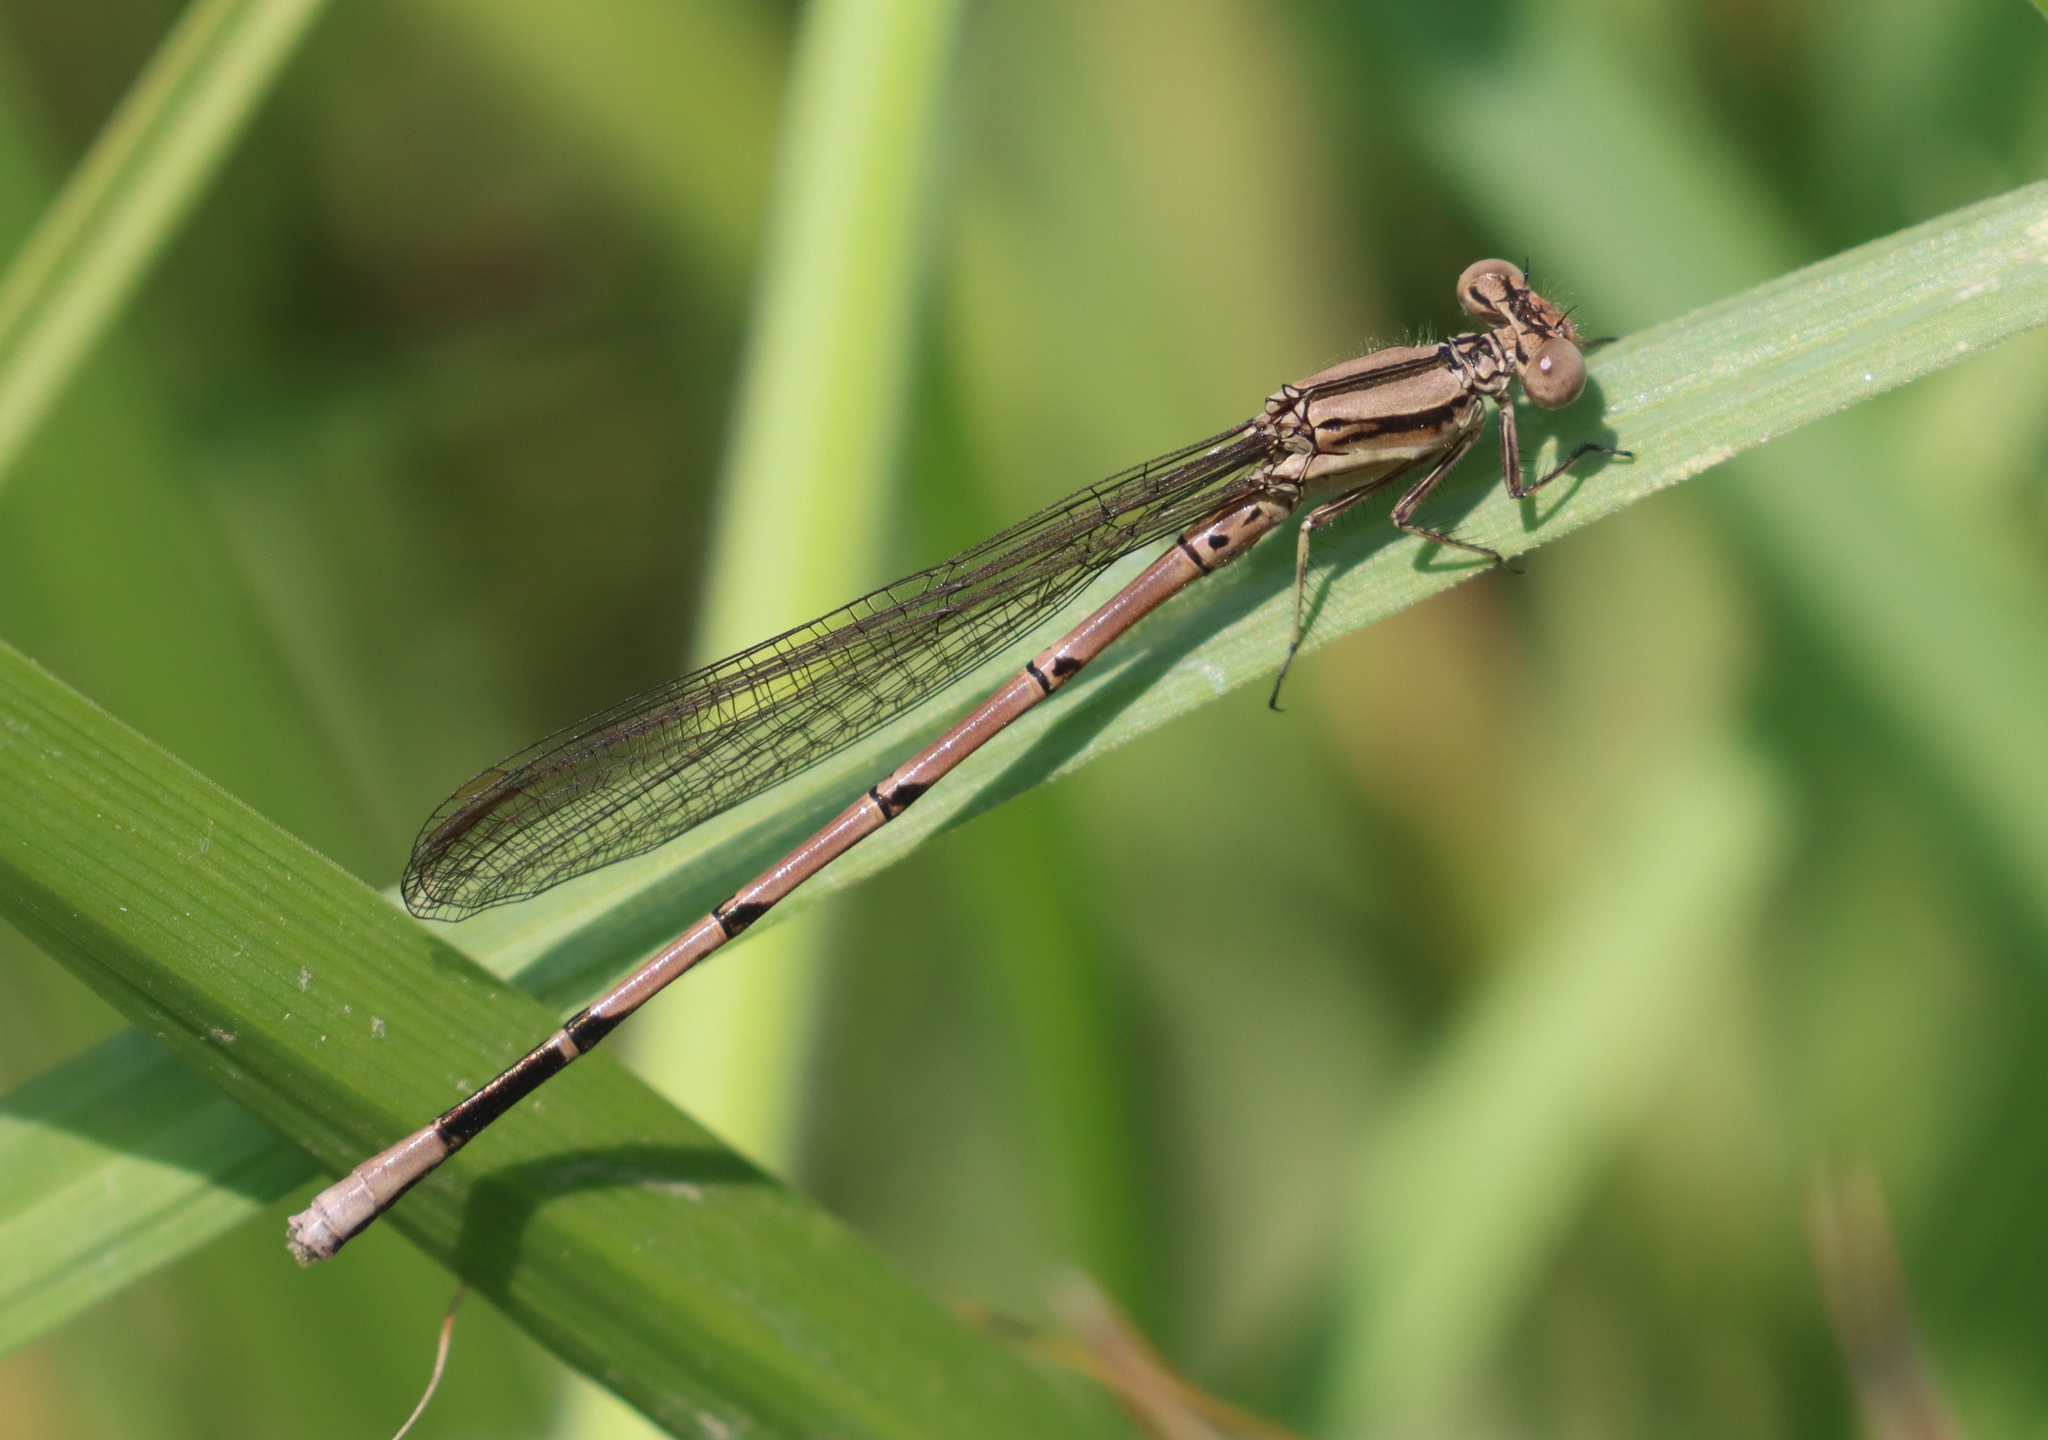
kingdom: Animalia
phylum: Arthropoda
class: Insecta
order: Odonata
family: Coenagrionidae
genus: Argia
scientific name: Argia fumipennis
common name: Variable dancer
